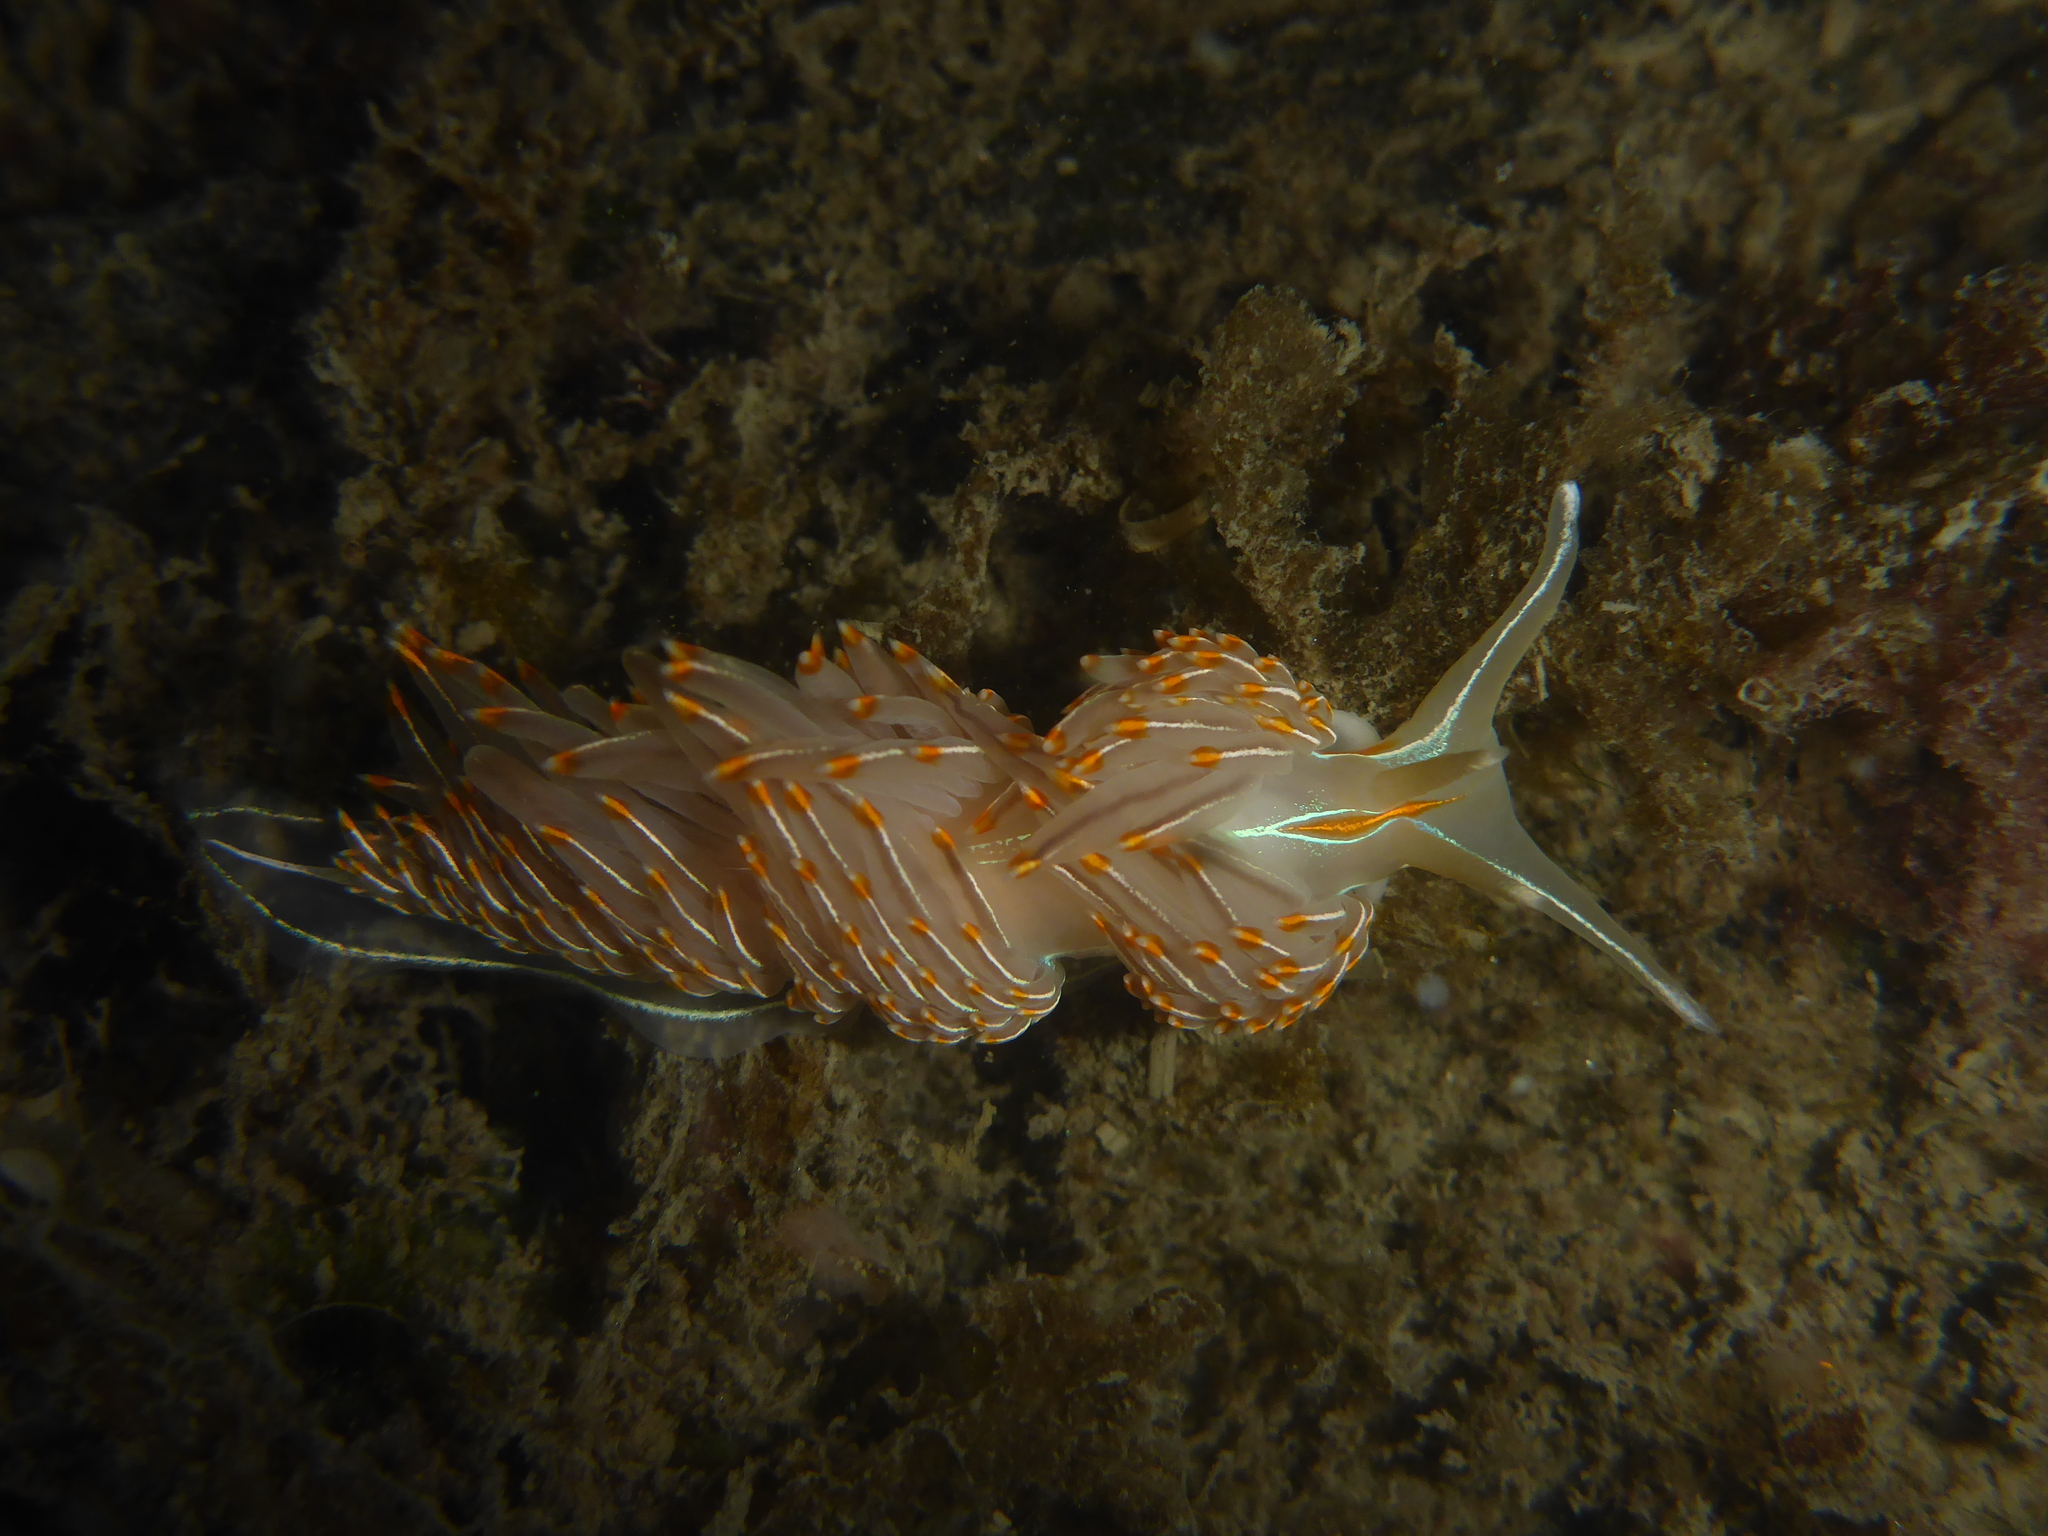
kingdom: Animalia
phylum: Mollusca
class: Gastropoda
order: Nudibranchia
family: Myrrhinidae
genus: Hermissenda
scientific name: Hermissenda crassicornis
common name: Hermissenda
